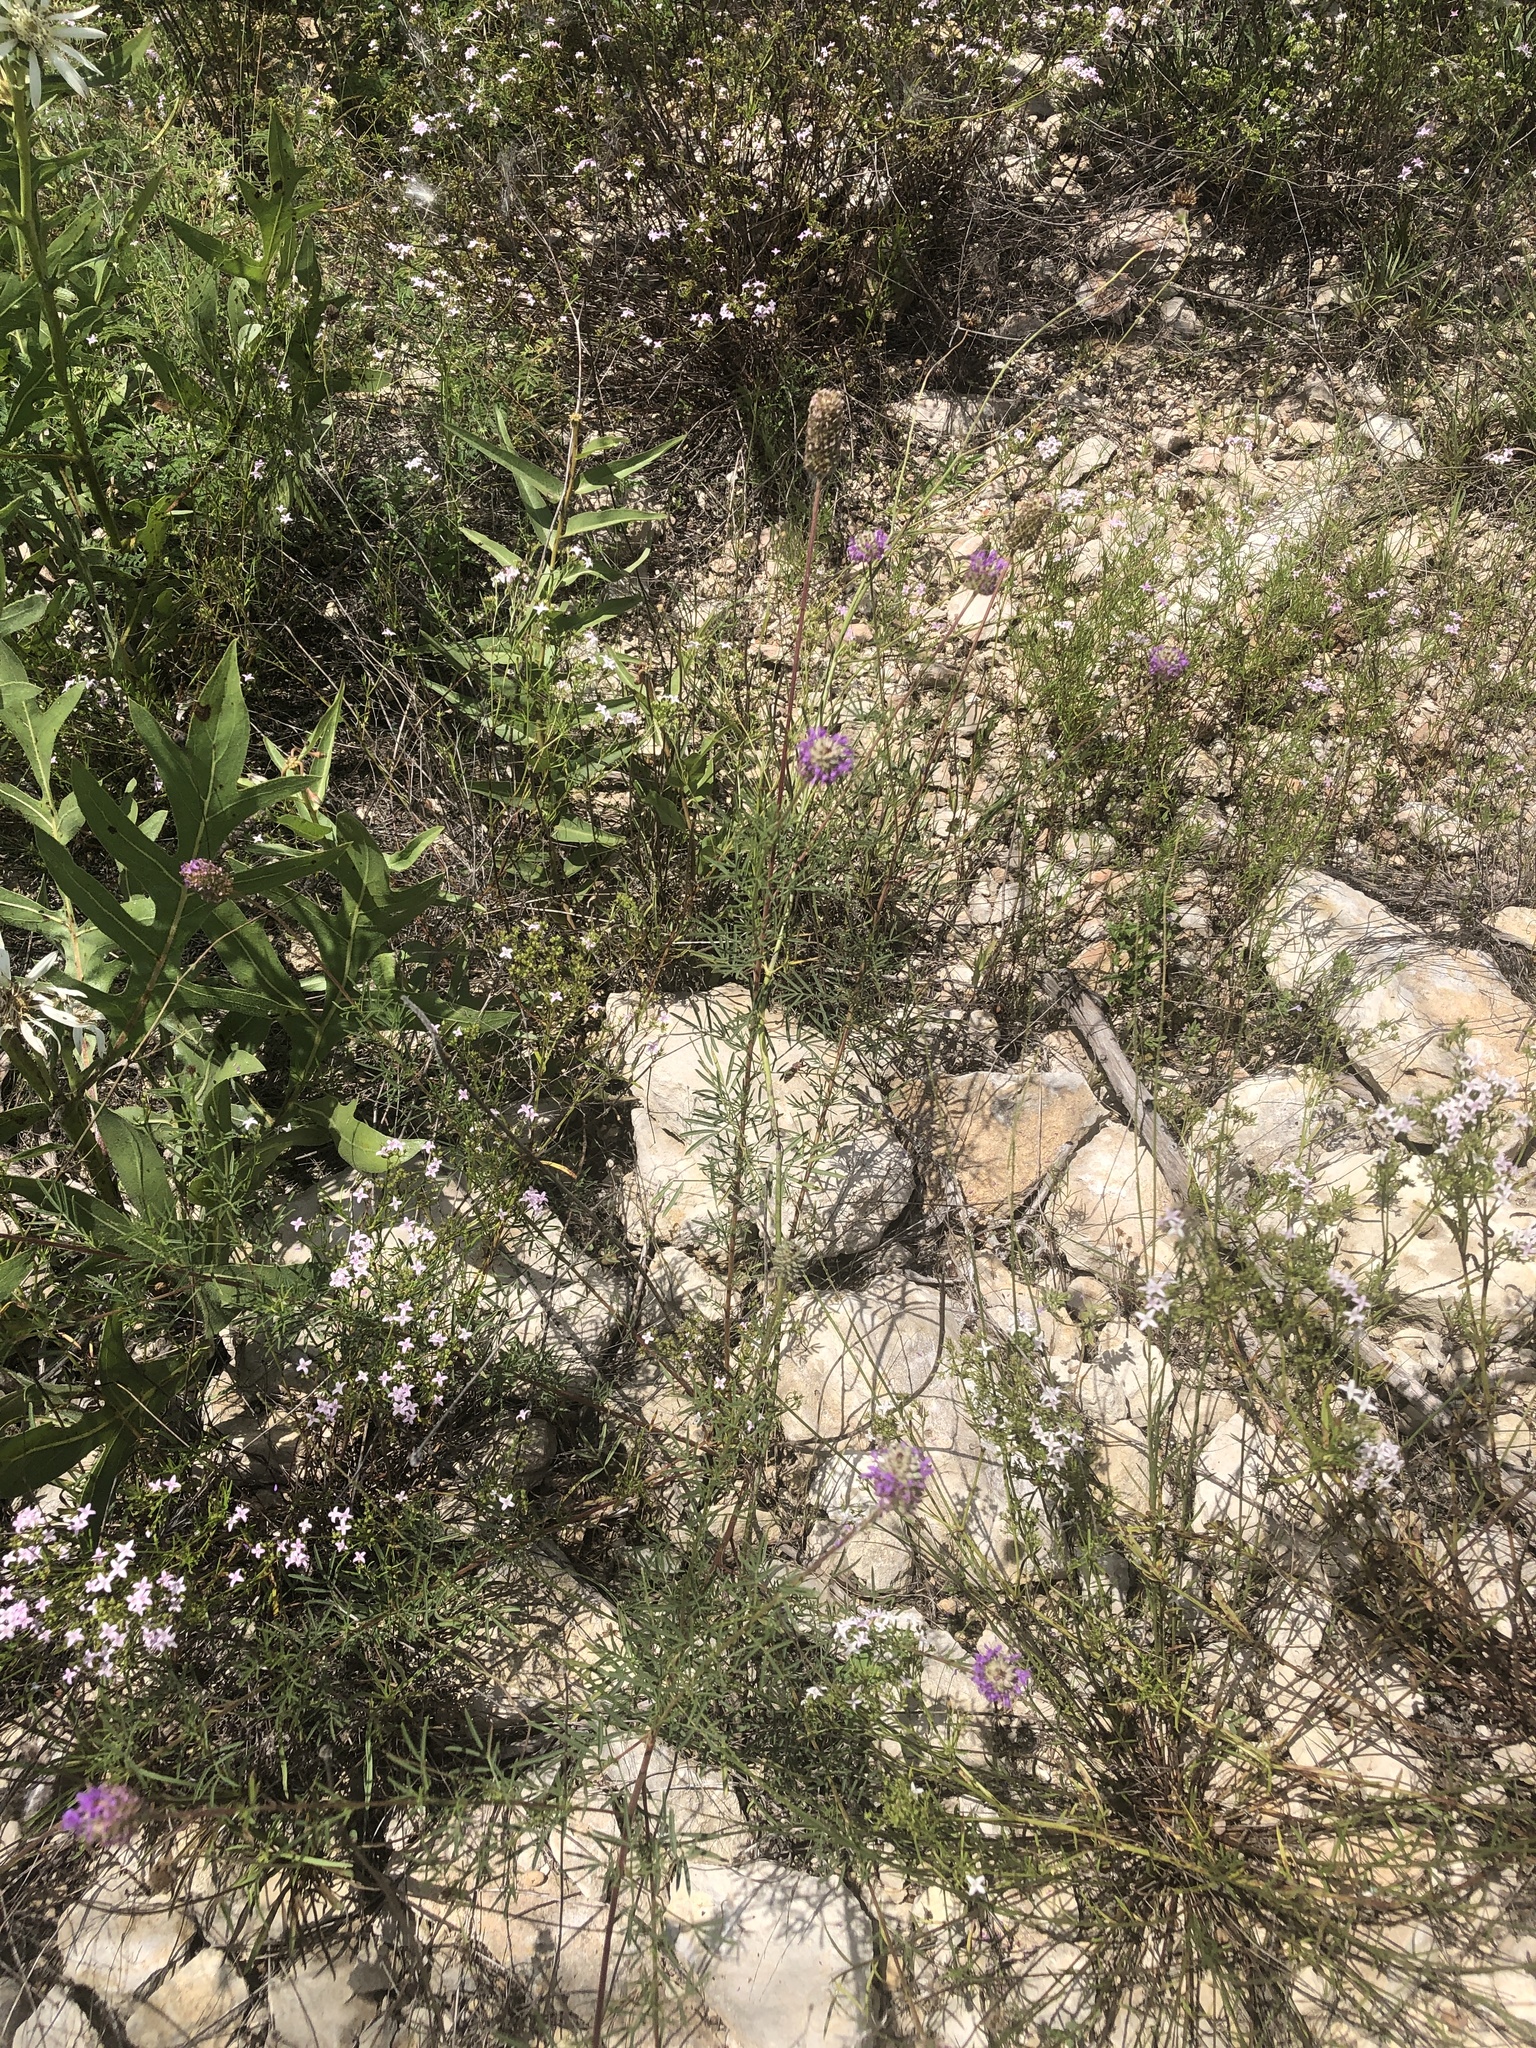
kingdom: Plantae
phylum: Tracheophyta
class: Magnoliopsida
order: Fabales
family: Fabaceae
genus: Dalea
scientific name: Dalea compacta
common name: Compact prairie-clover
